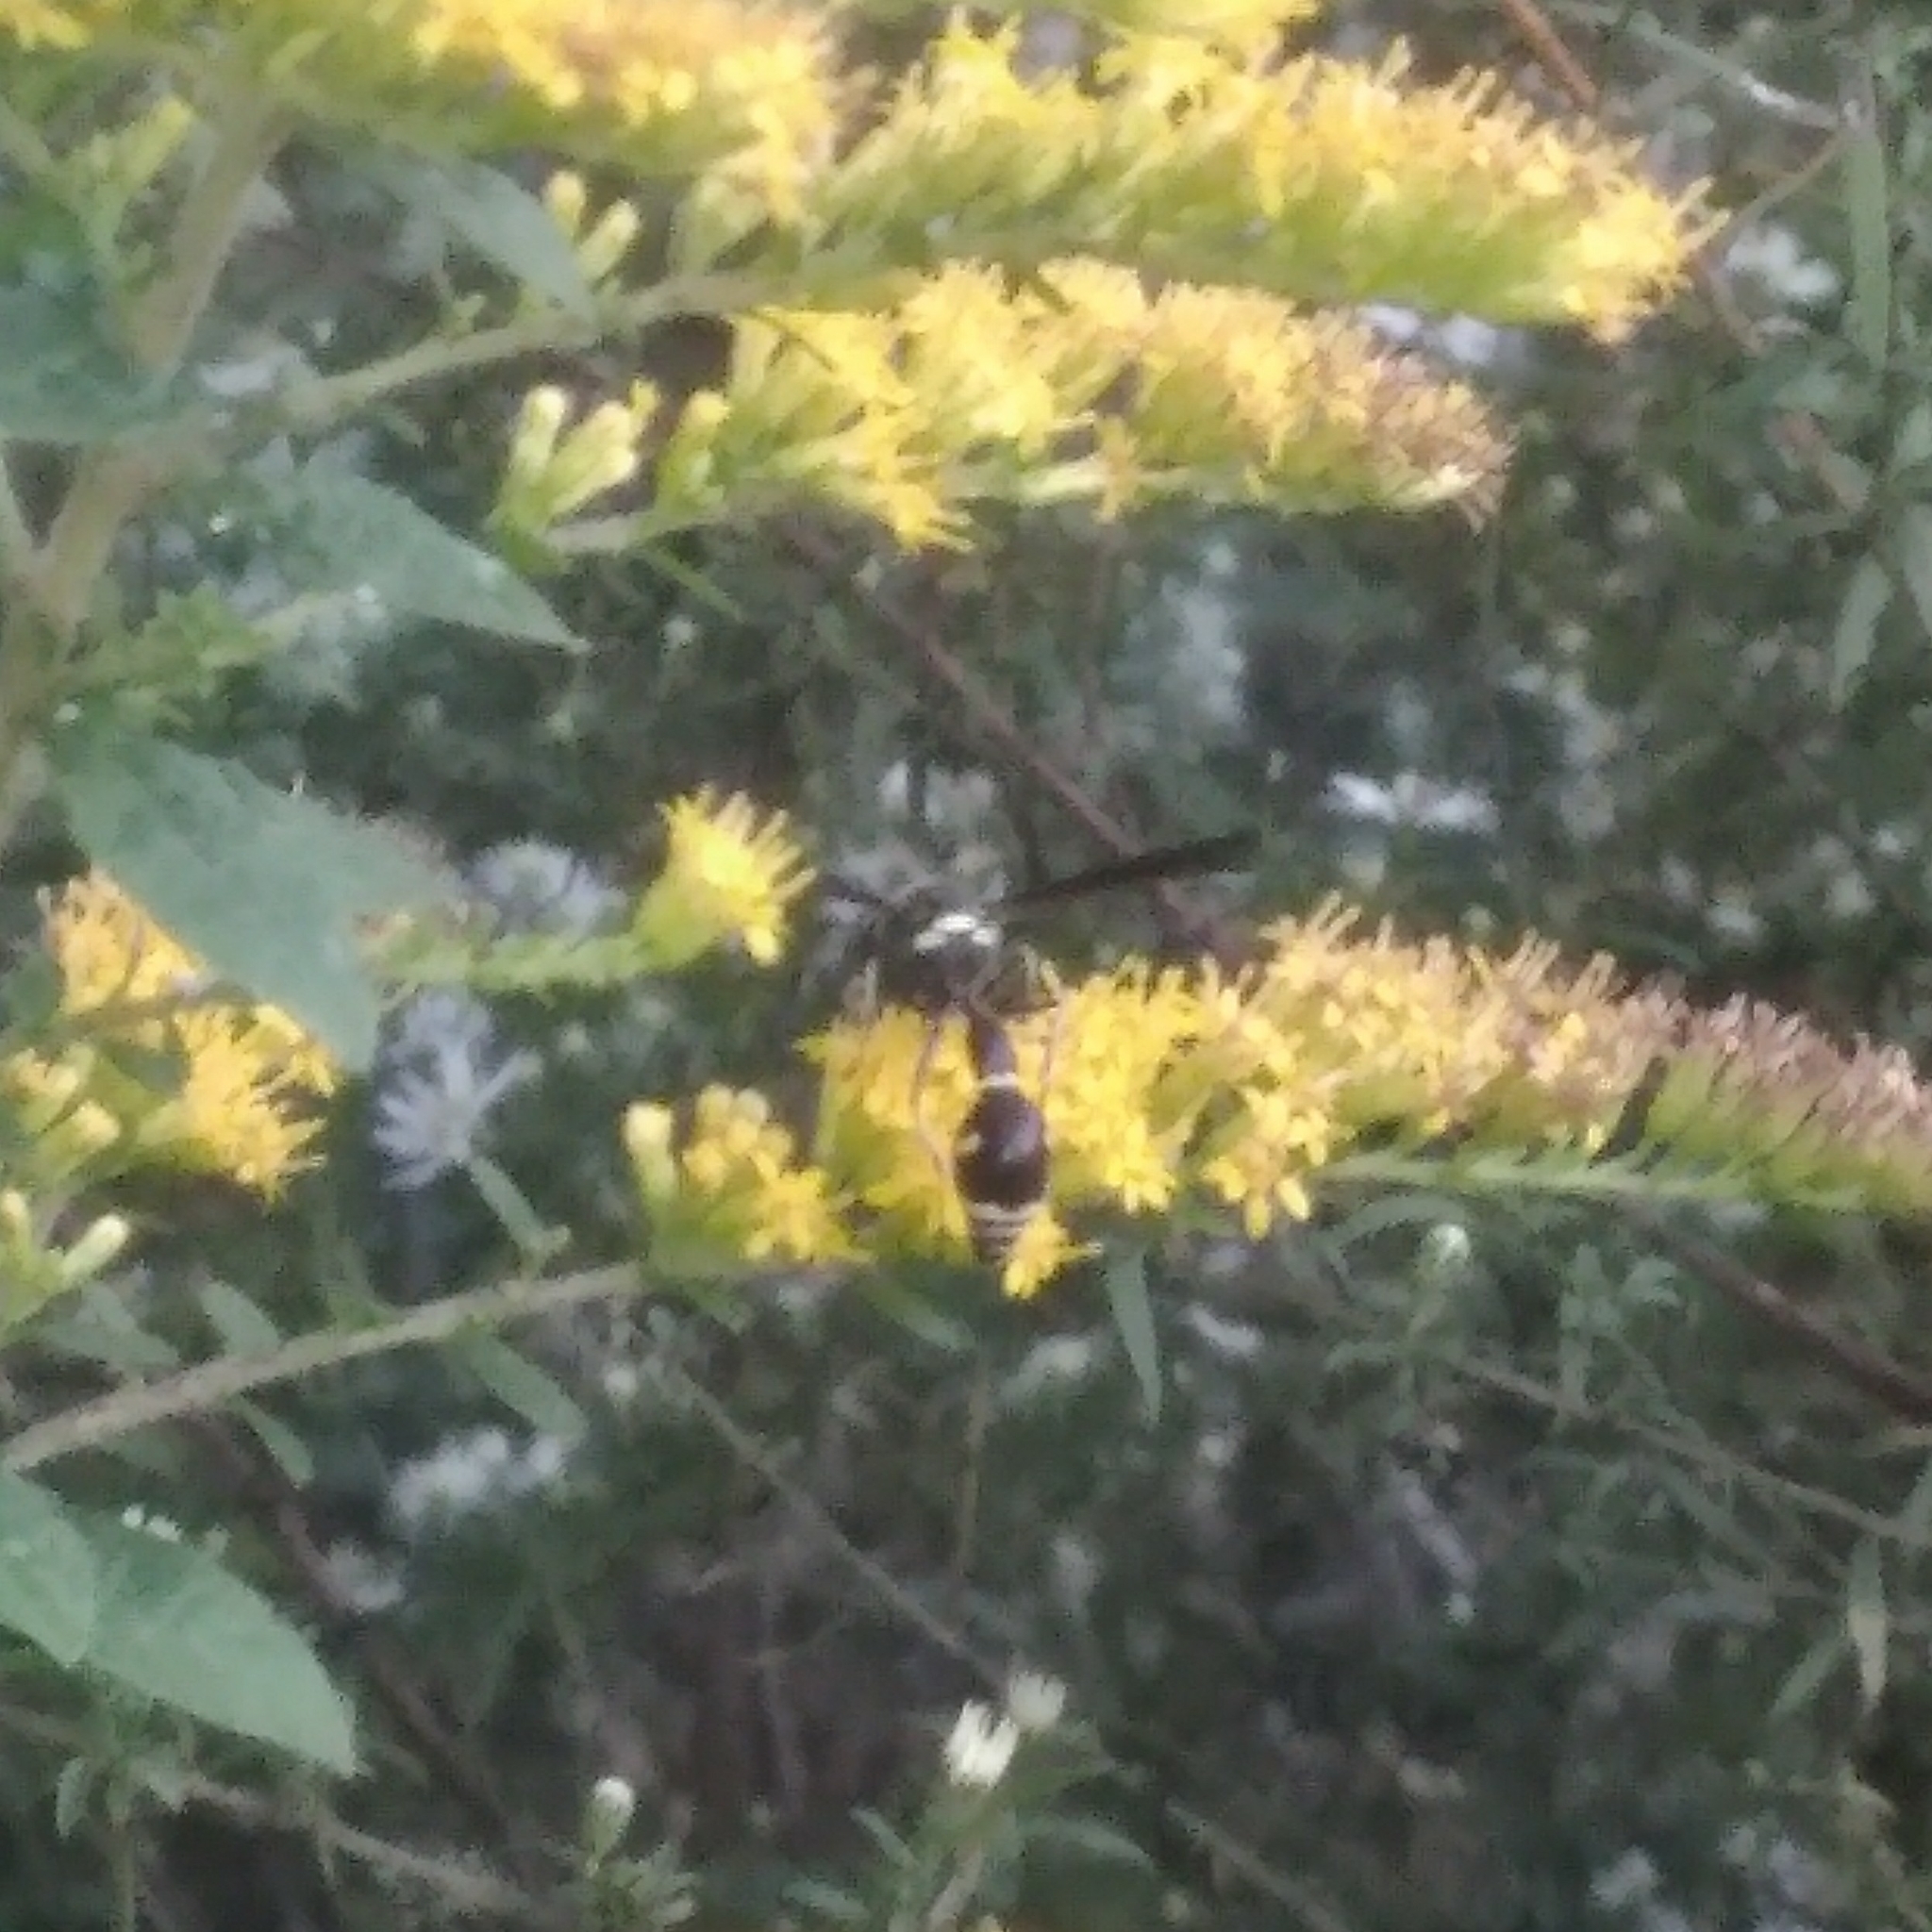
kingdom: Animalia
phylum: Arthropoda
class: Insecta
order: Hymenoptera
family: Vespidae
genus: Eumenes
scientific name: Eumenes fraternus
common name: Fraternal potter wasp
